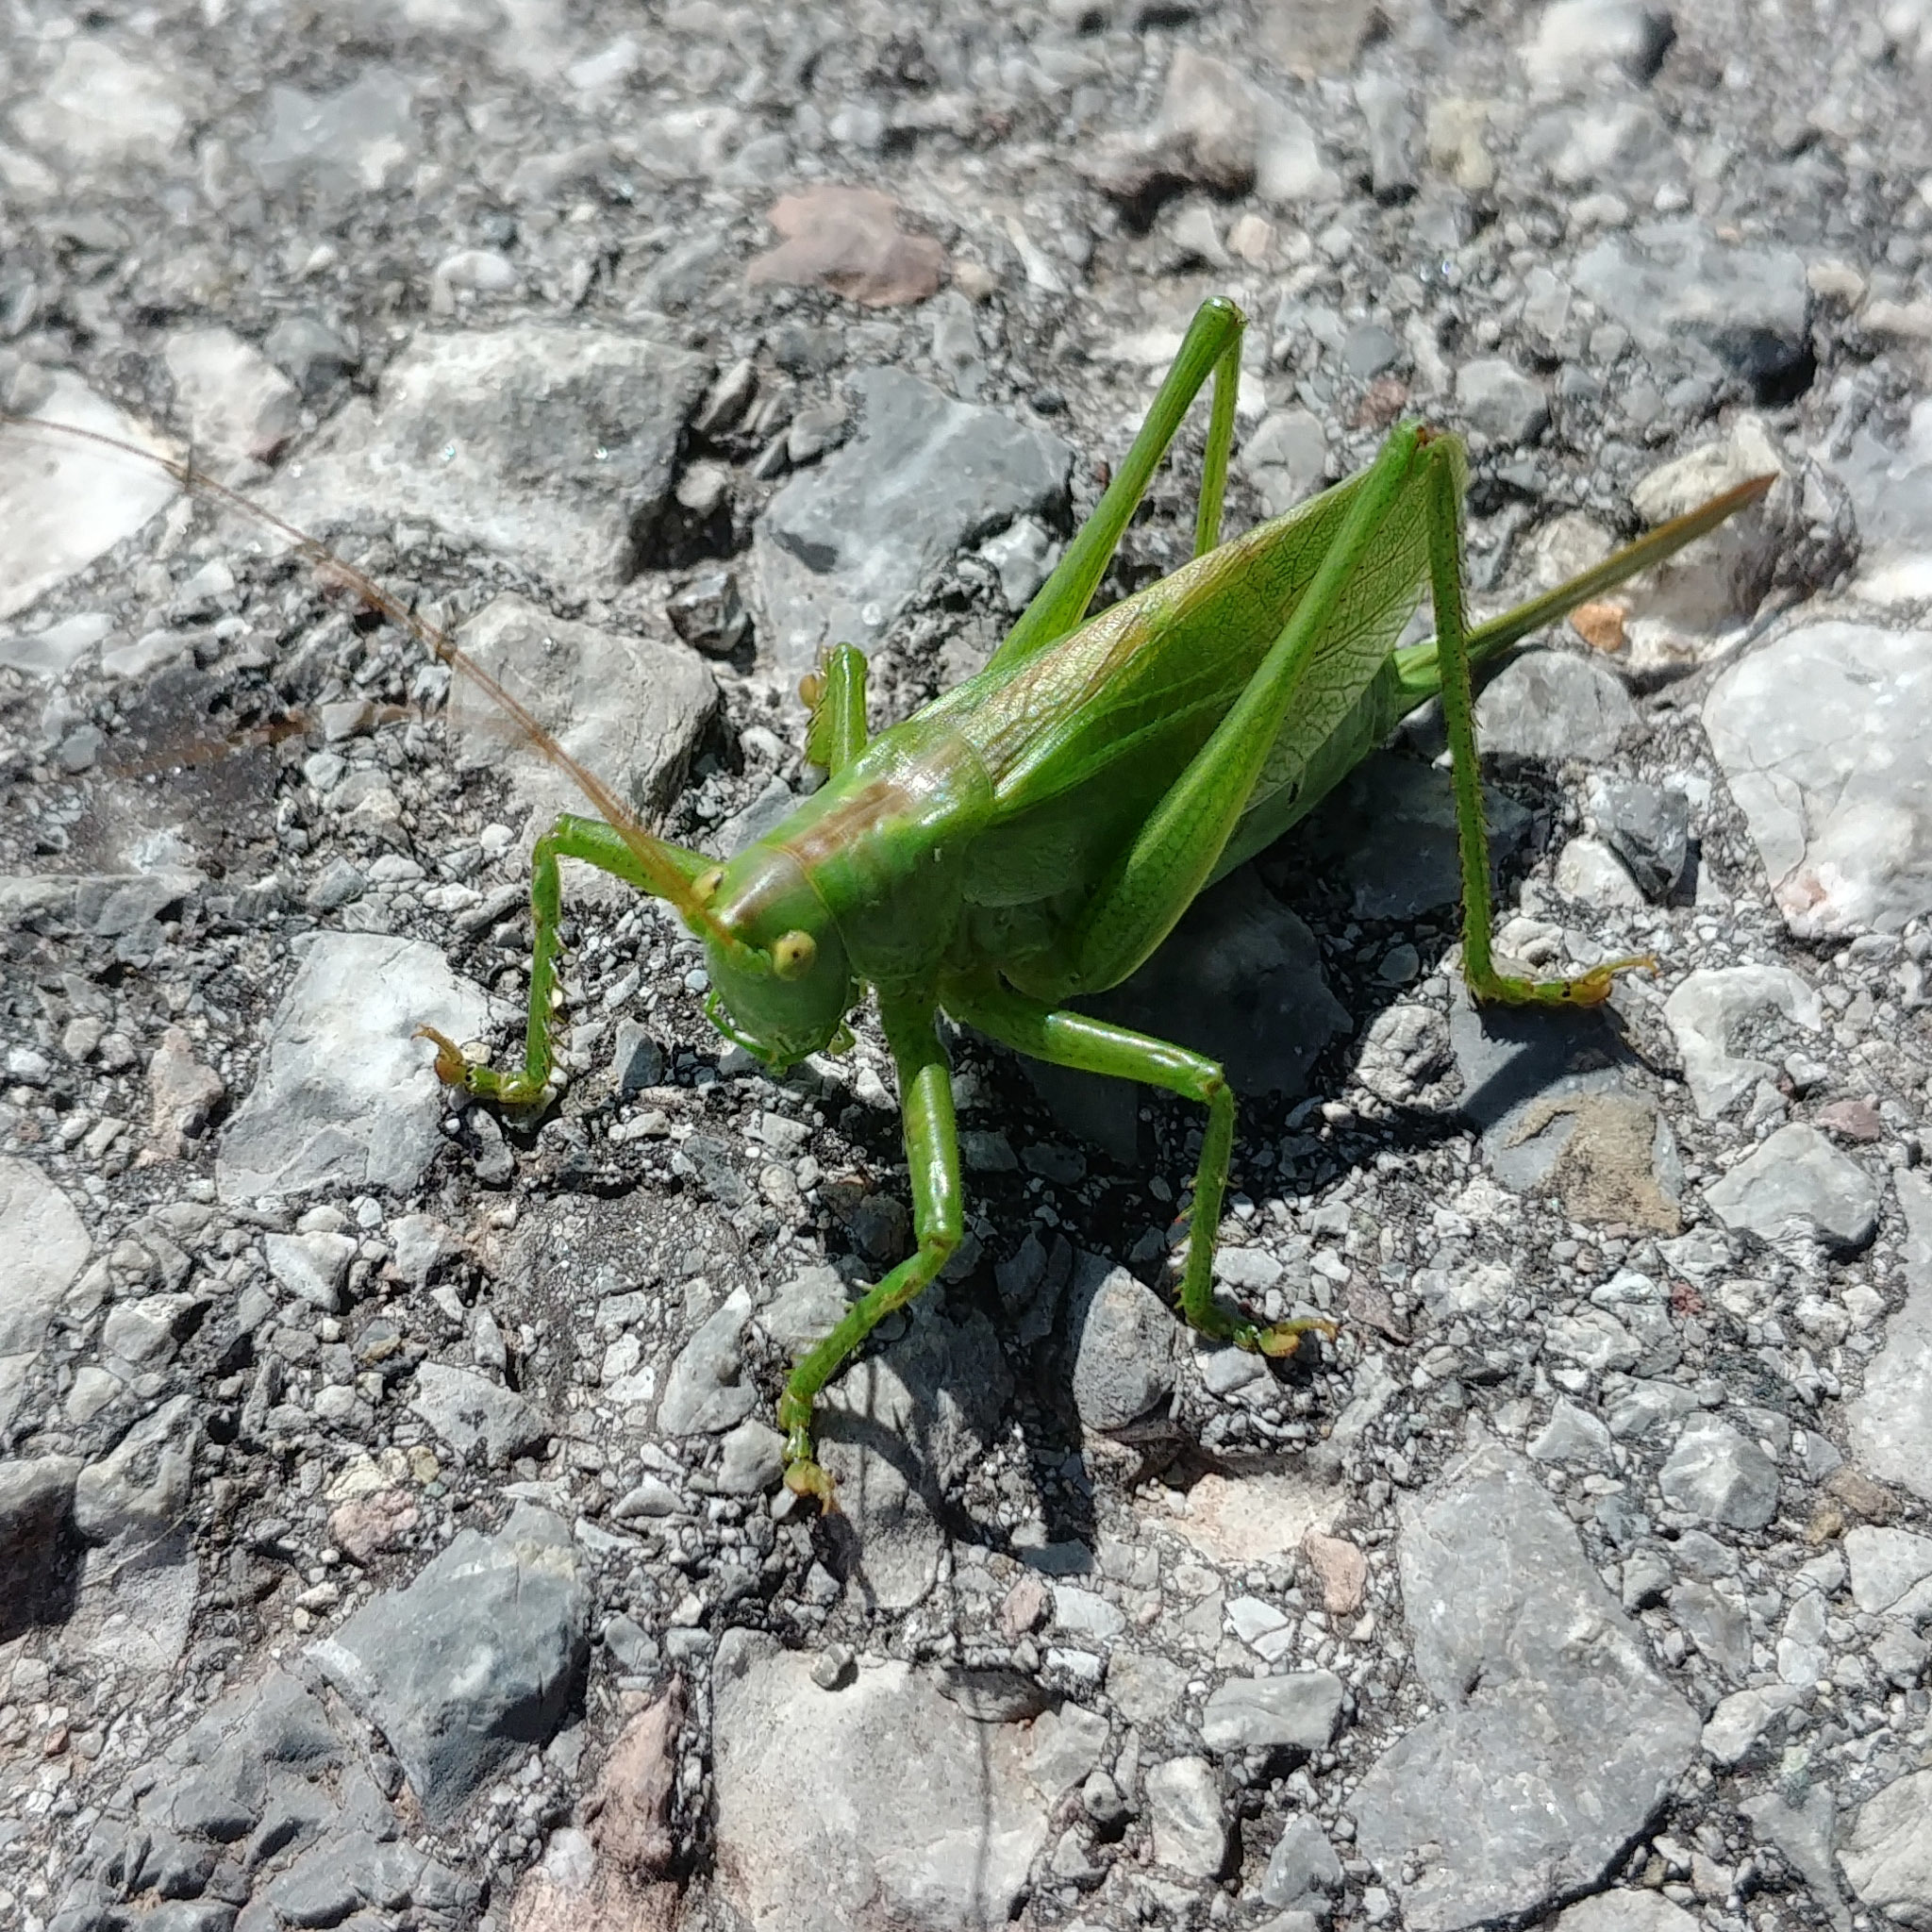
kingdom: Animalia
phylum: Arthropoda
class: Insecta
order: Orthoptera
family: Tettigoniidae
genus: Tettigonia
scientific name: Tettigonia cantans
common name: Upland green bush-cricket
